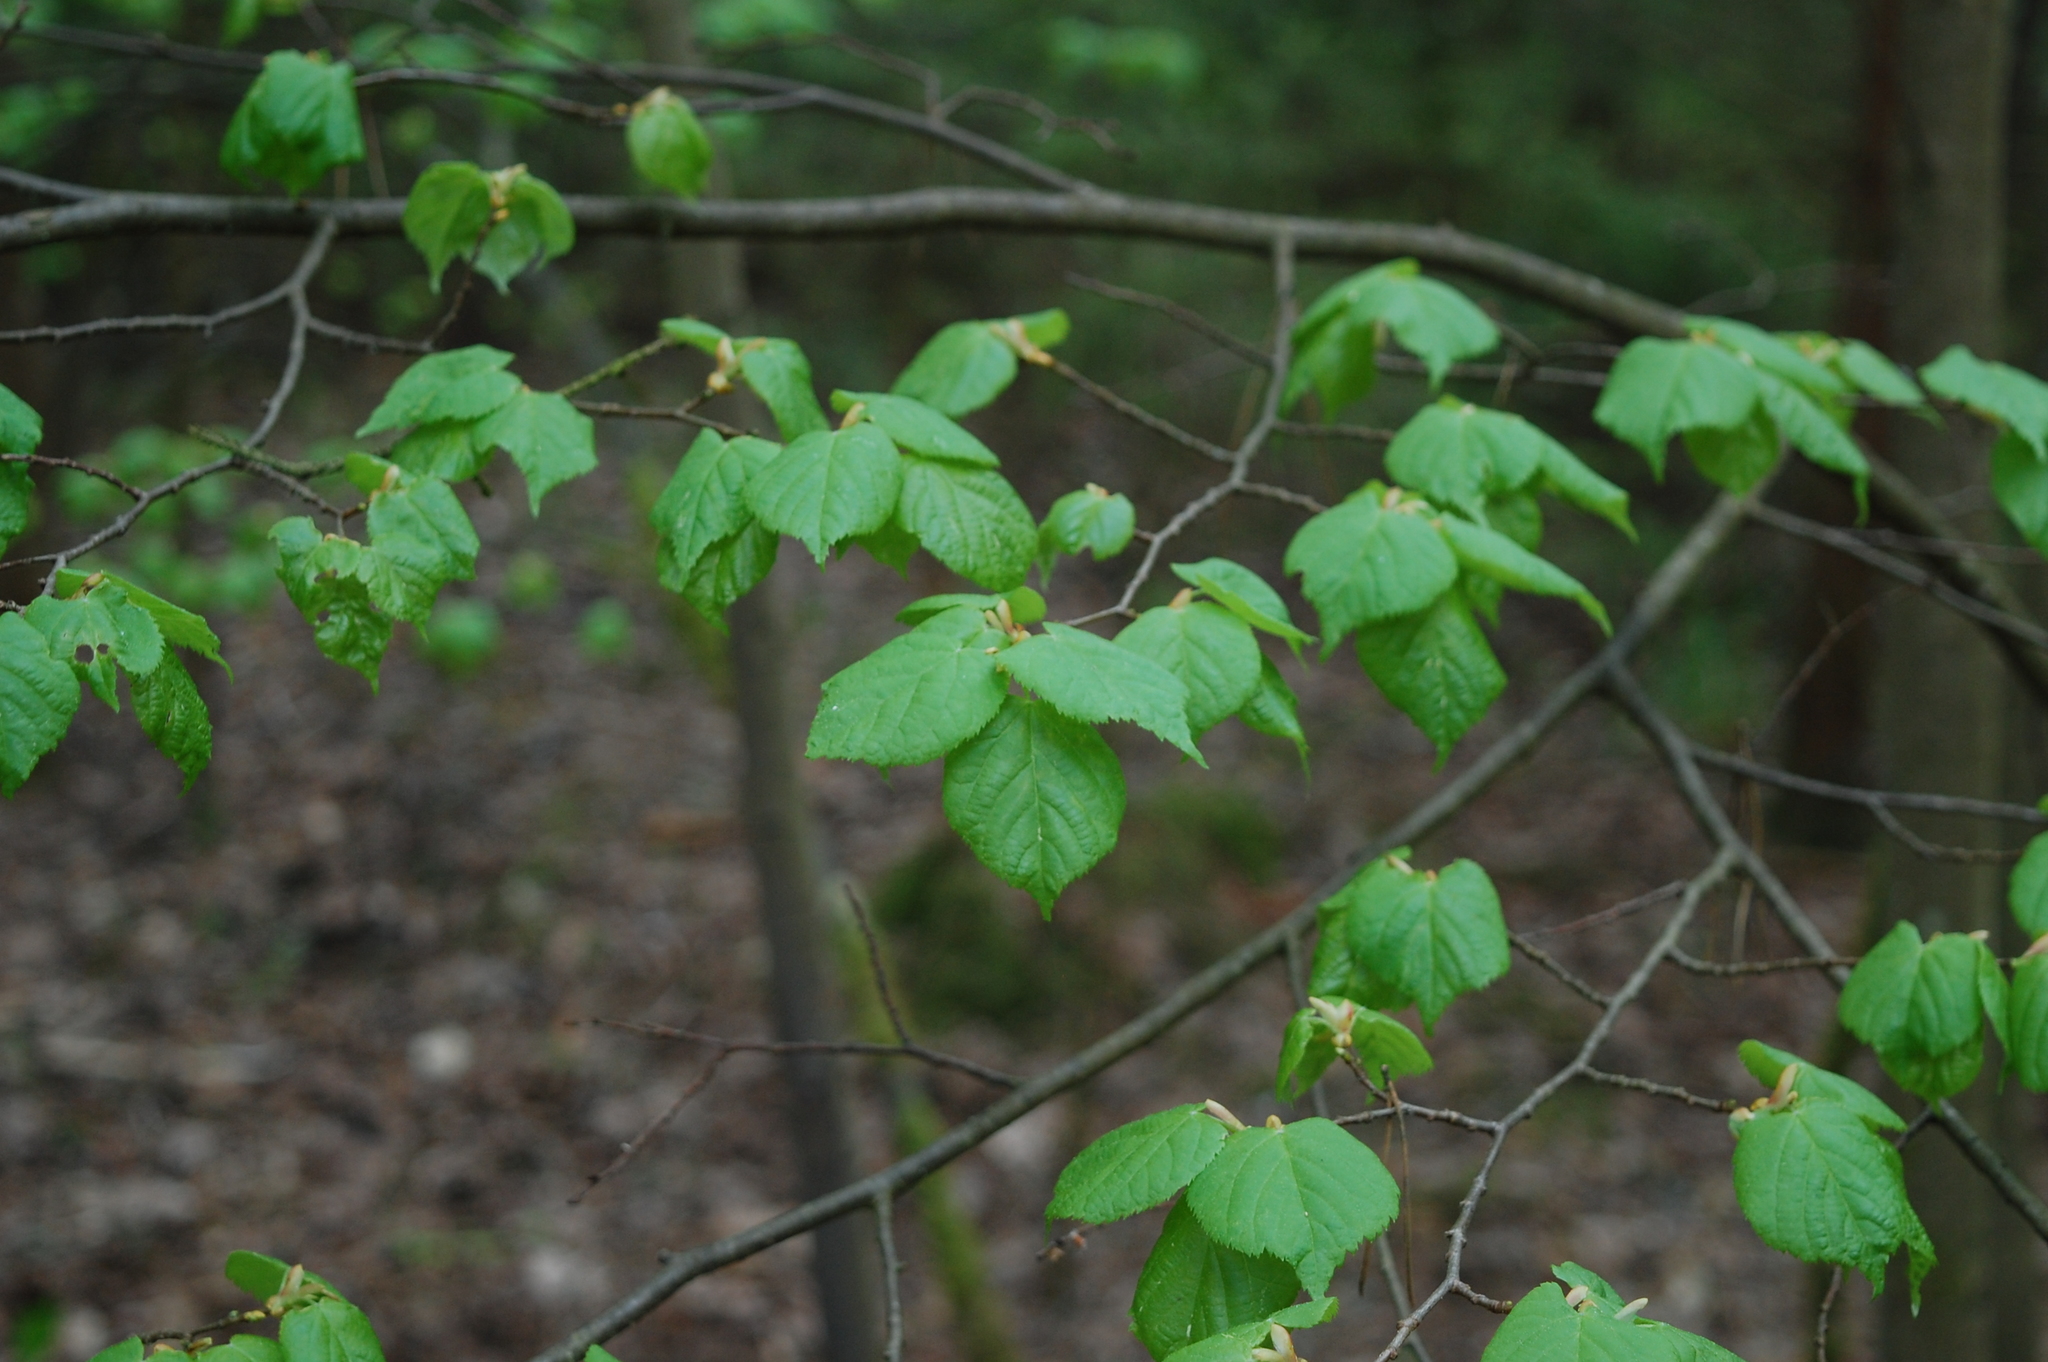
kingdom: Plantae
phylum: Tracheophyta
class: Magnoliopsida
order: Malvales
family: Malvaceae
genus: Tilia
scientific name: Tilia cordata
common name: Small-leaved lime
